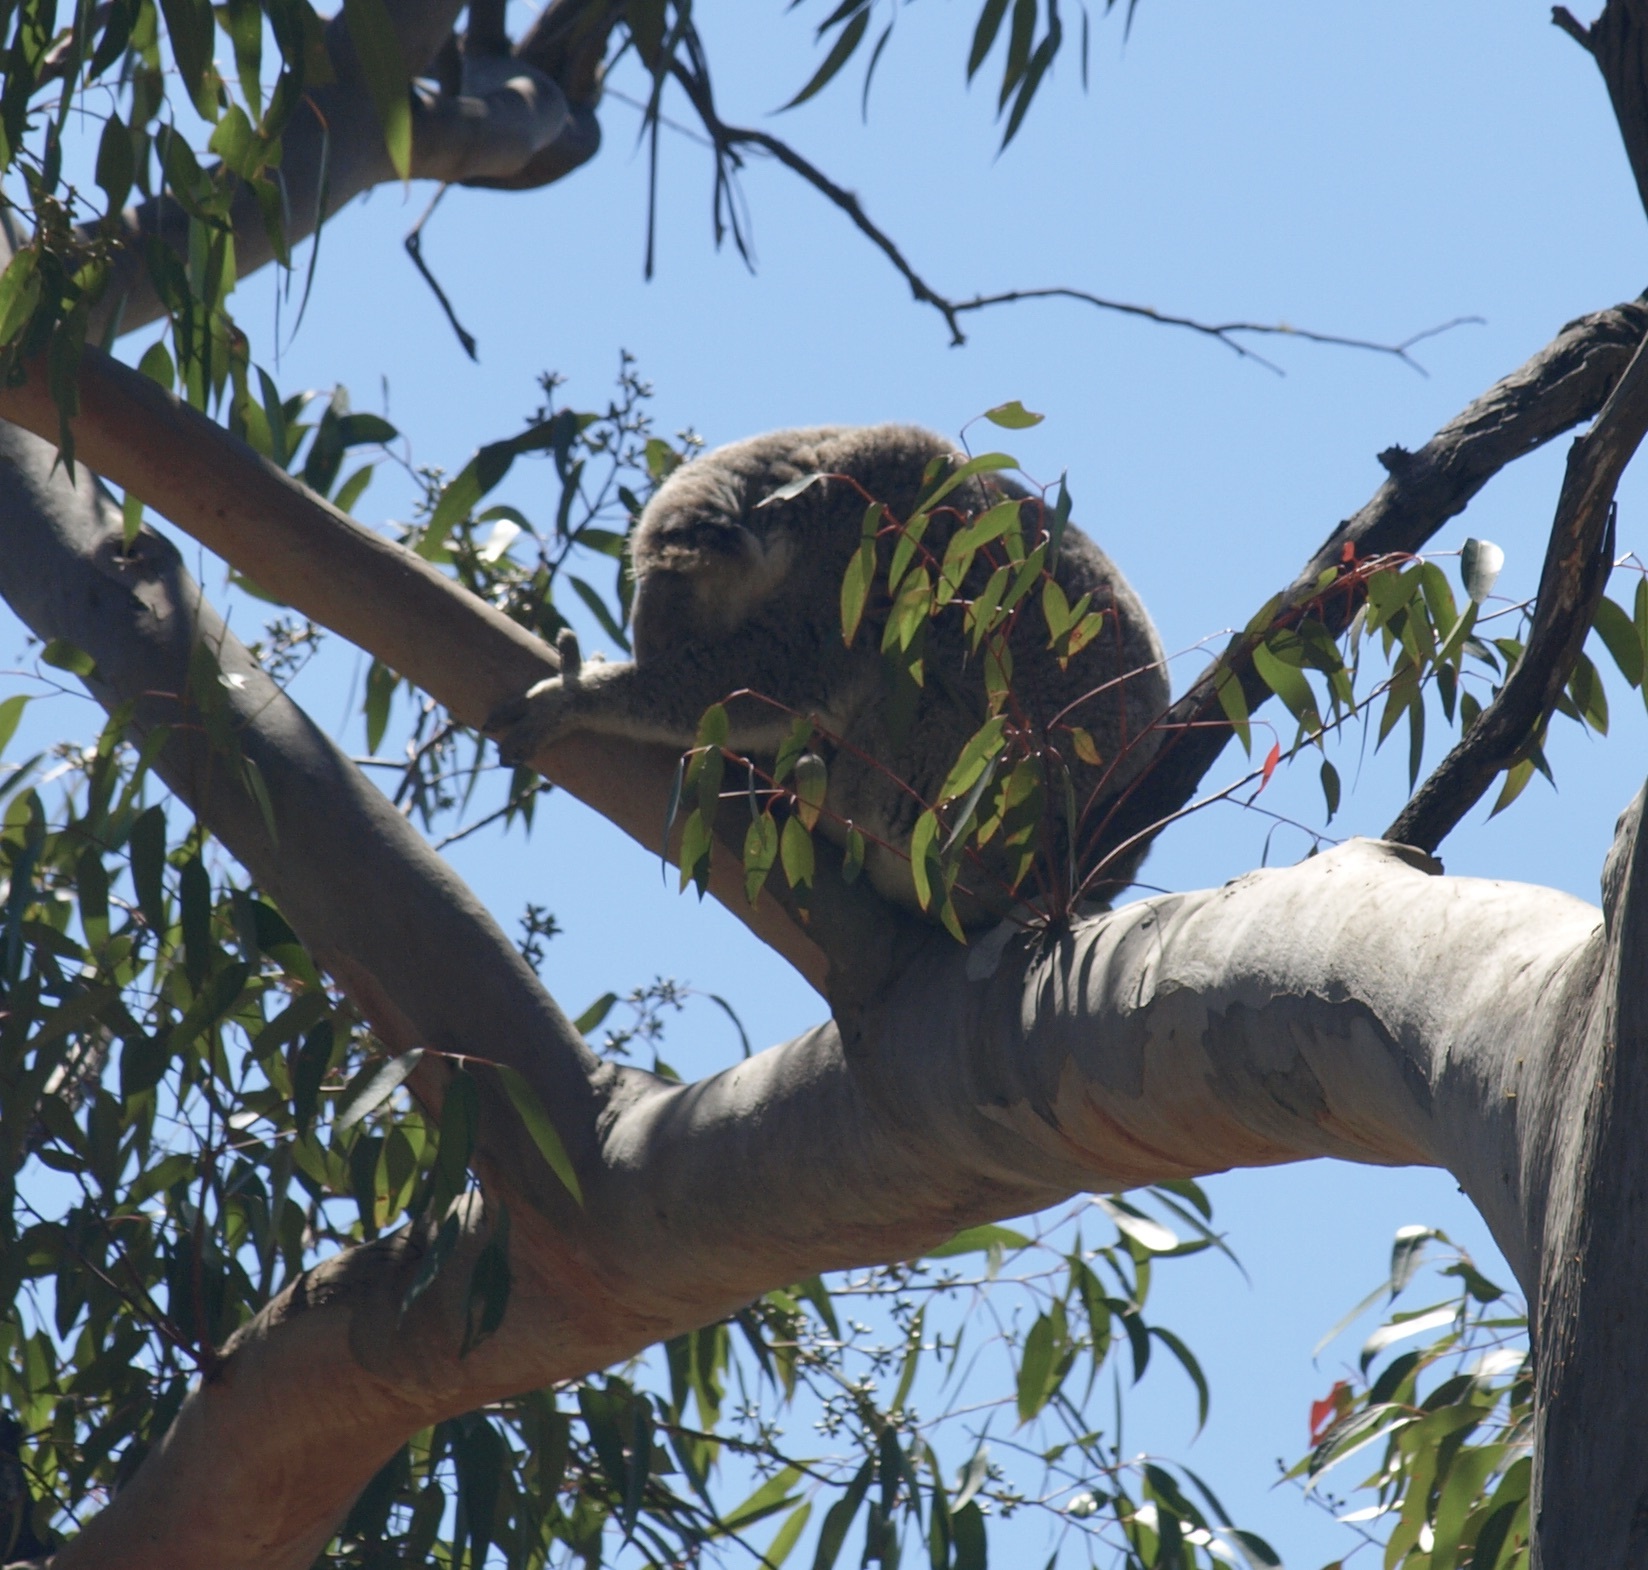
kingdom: Animalia
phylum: Chordata
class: Mammalia
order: Diprotodontia
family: Phascolarctidae
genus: Phascolarctos
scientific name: Phascolarctos cinereus
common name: Koala
